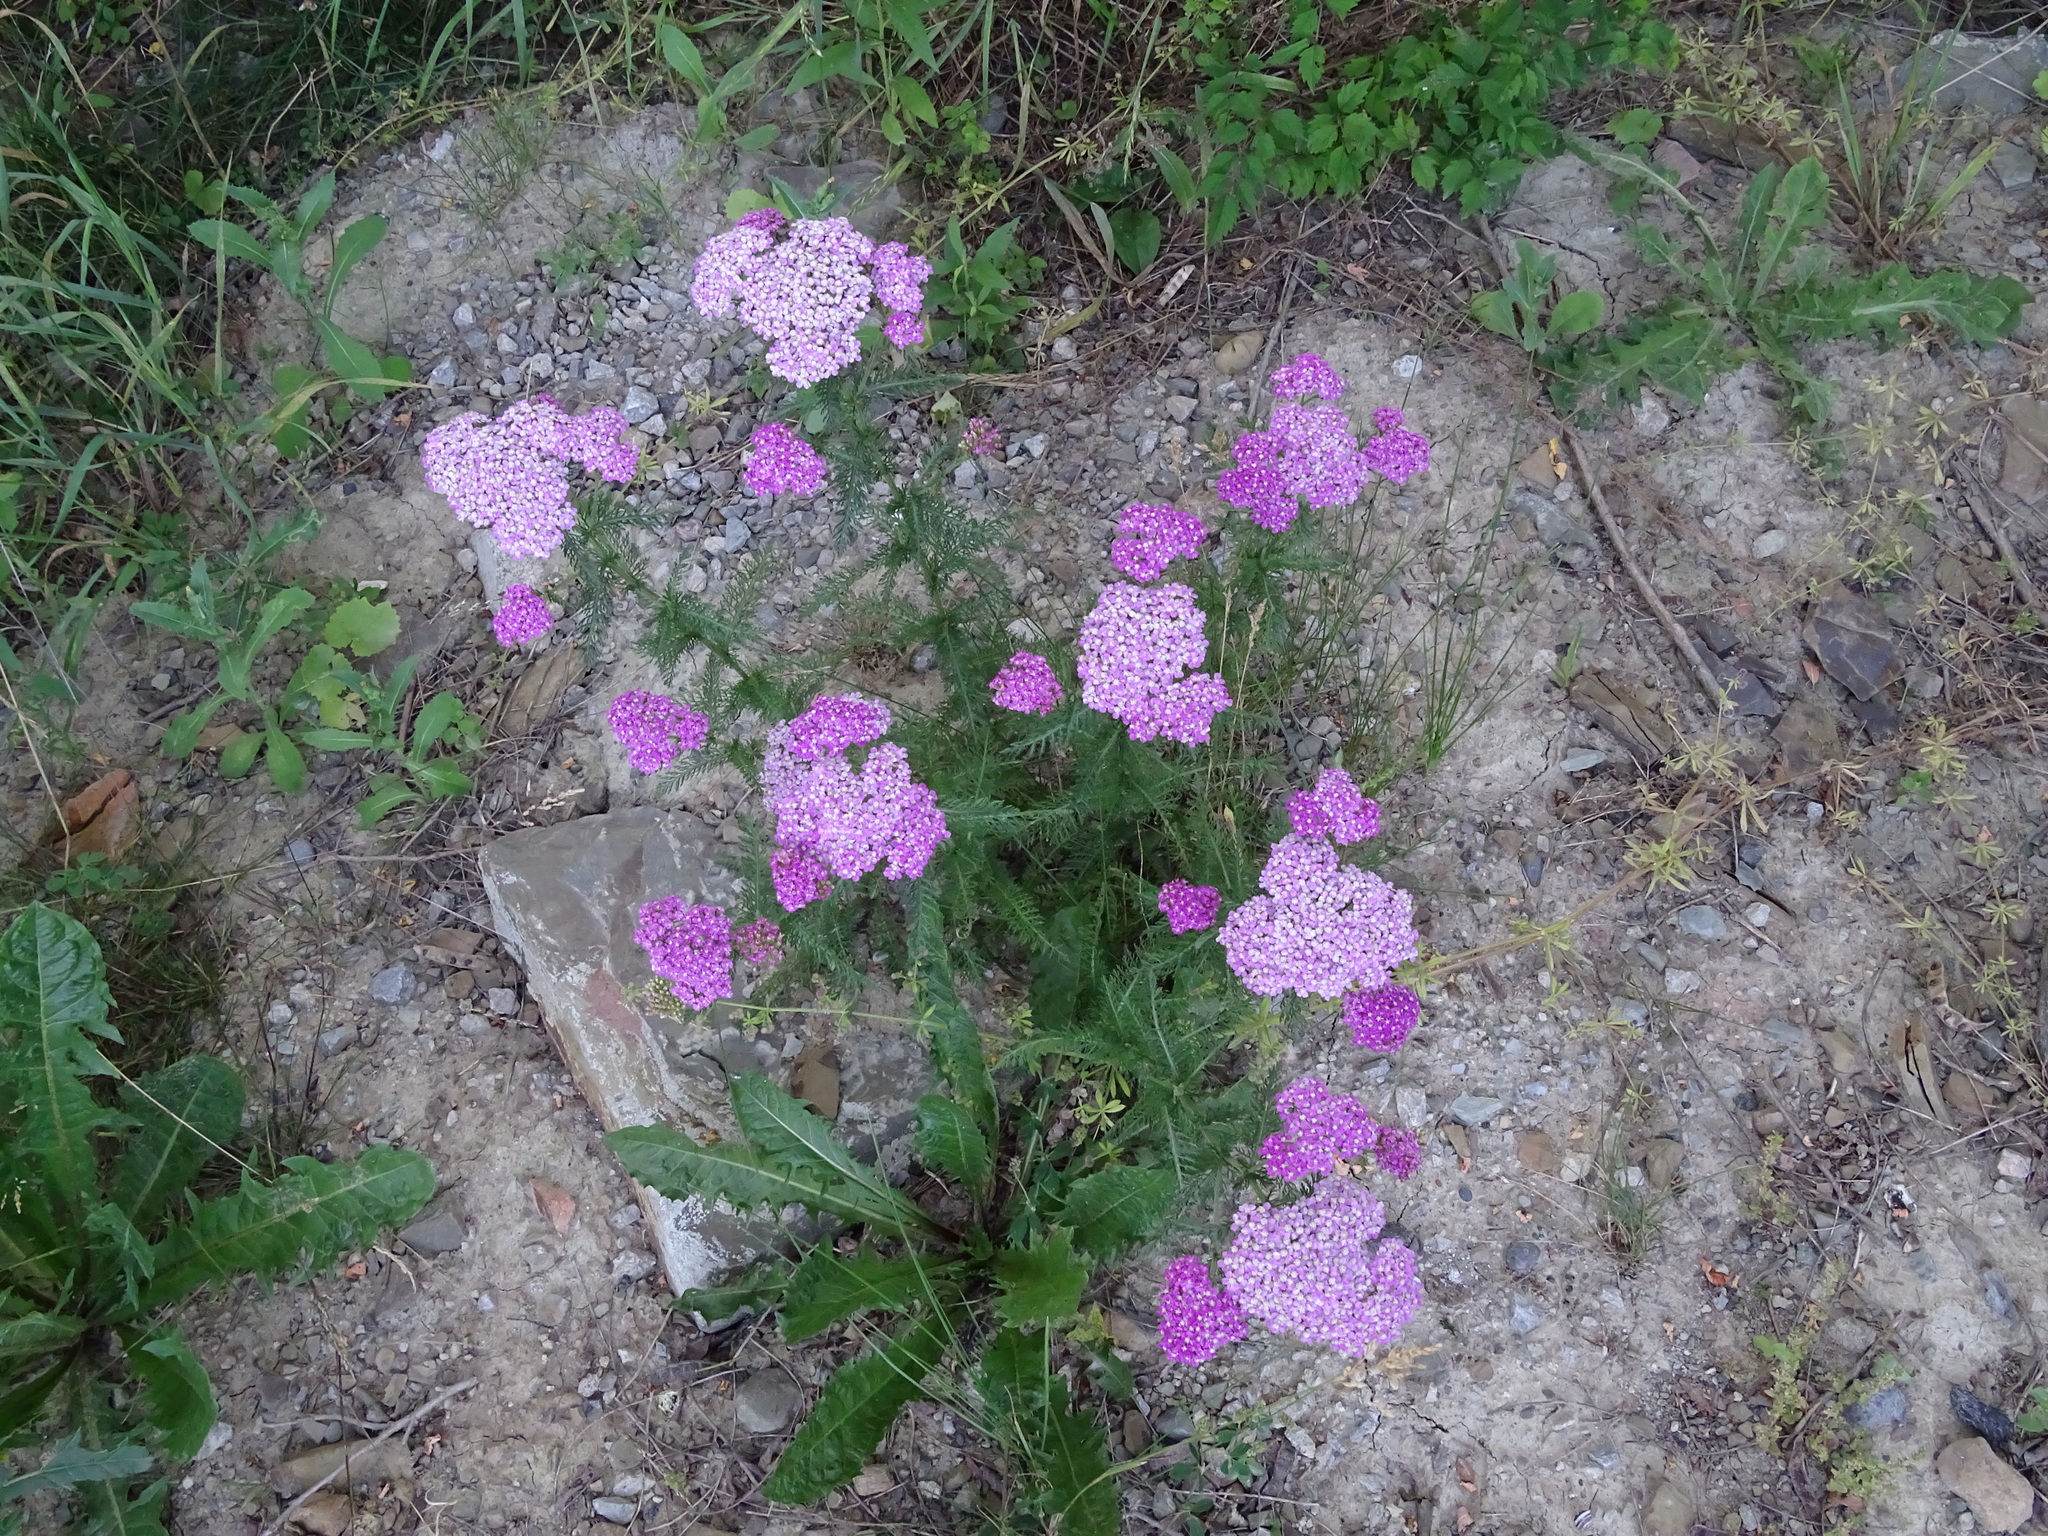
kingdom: Plantae
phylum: Tracheophyta
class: Magnoliopsida
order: Asterales
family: Asteraceae
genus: Achillea
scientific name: Achillea millefolium
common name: Yarrow
